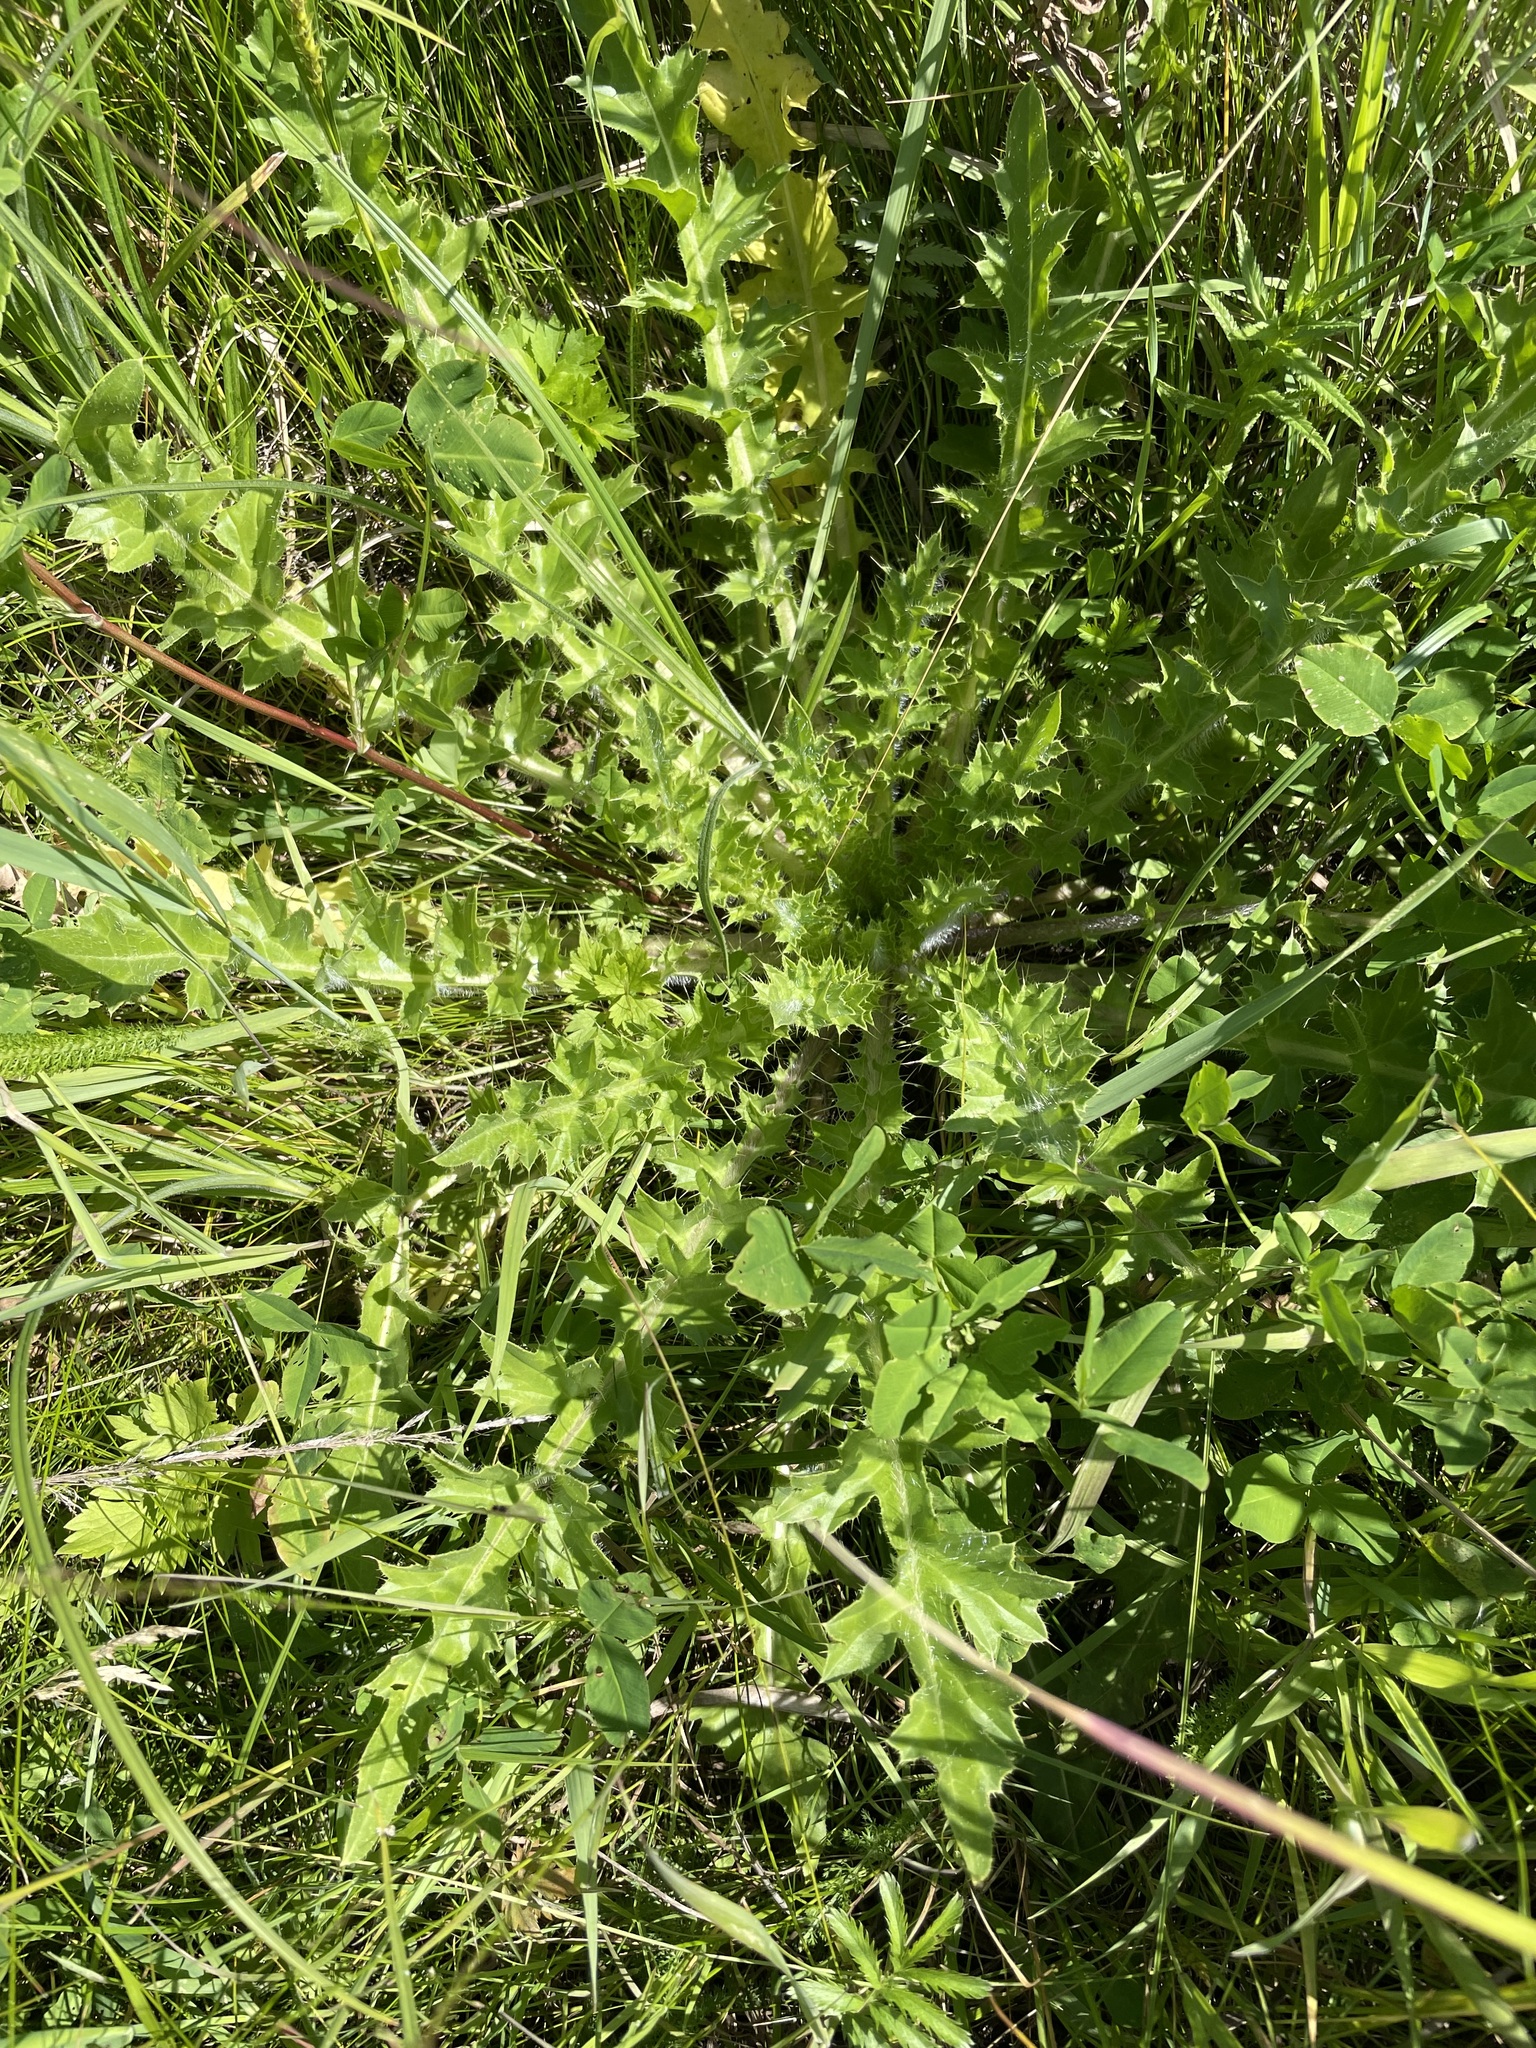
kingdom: Plantae
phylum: Tracheophyta
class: Magnoliopsida
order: Asterales
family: Asteraceae
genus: Cirsium
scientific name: Cirsium esculentum
